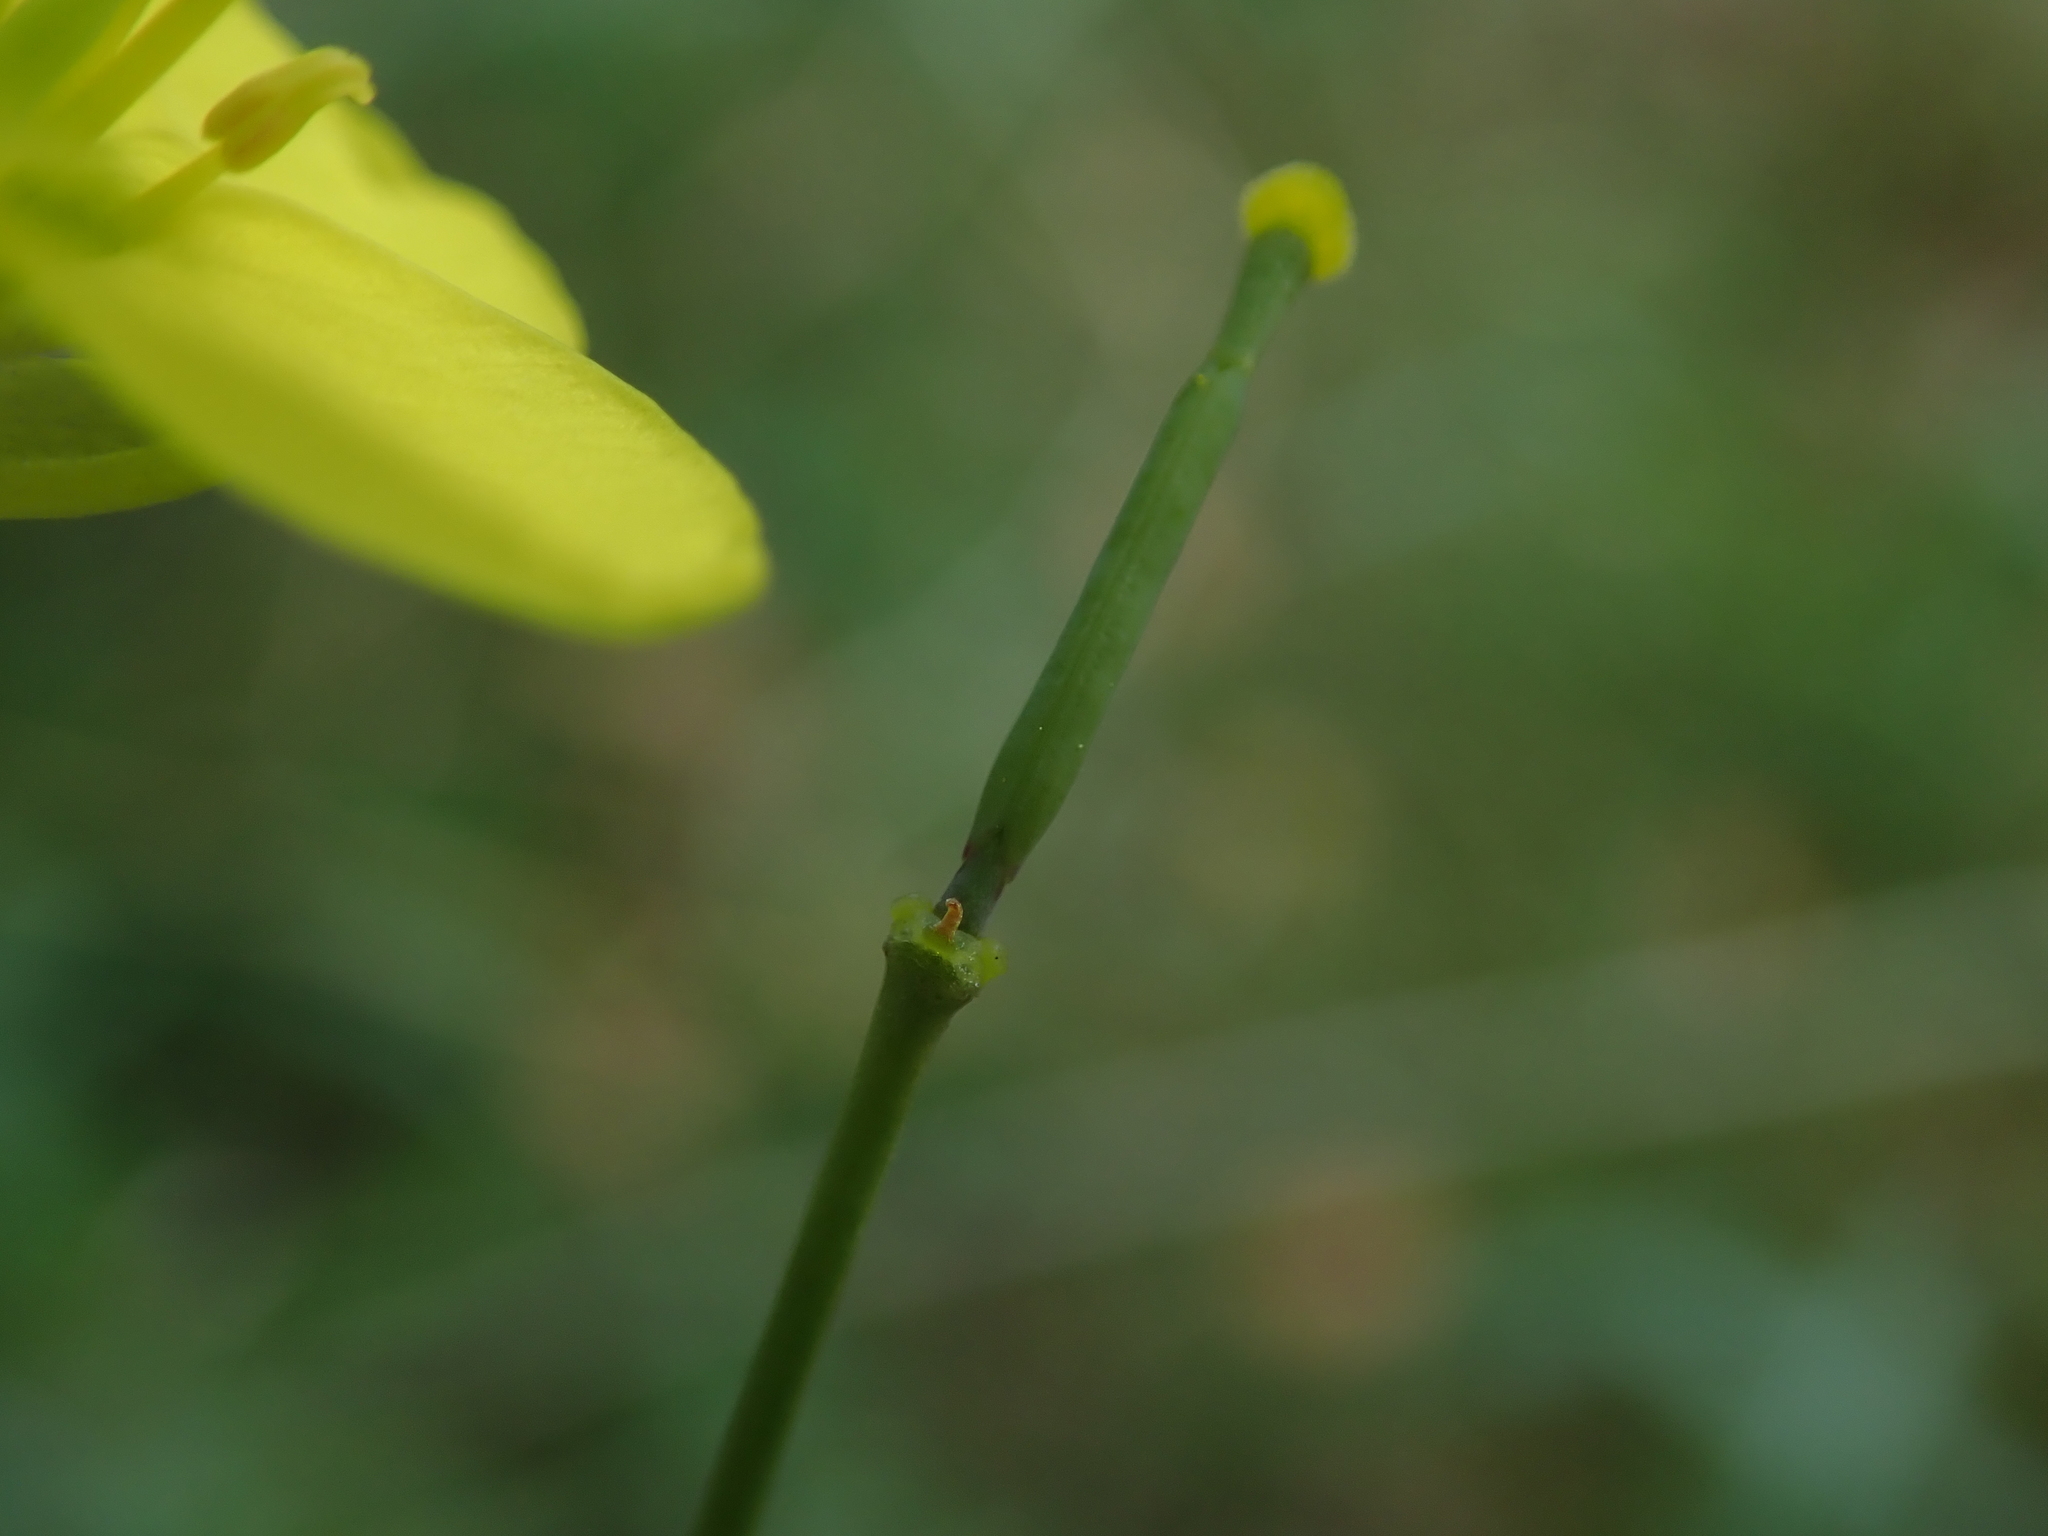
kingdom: Plantae
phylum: Tracheophyta
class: Magnoliopsida
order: Brassicales
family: Brassicaceae
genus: Diplotaxis
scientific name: Diplotaxis tenuifolia
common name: Perennial wall-rocket
